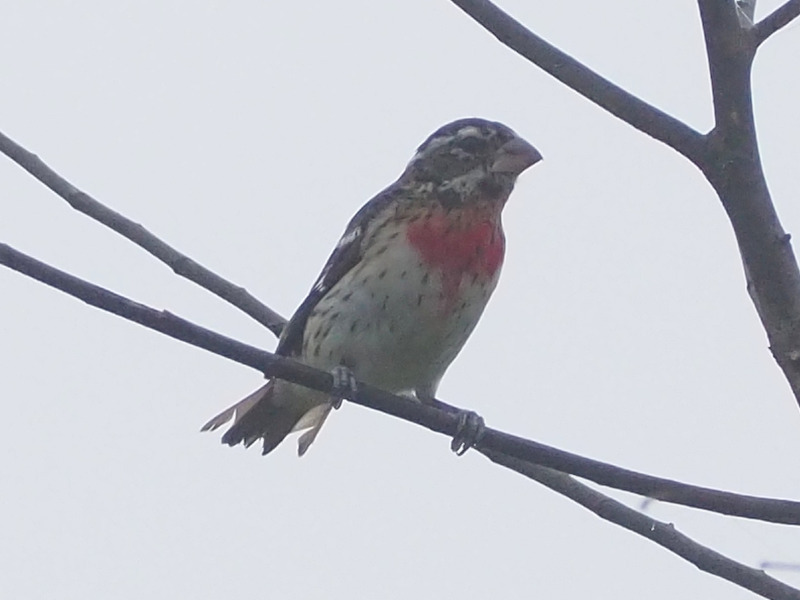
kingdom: Animalia
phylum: Chordata
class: Aves
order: Passeriformes
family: Cardinalidae
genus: Pheucticus
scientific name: Pheucticus ludovicianus
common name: Rose-breasted grosbeak
